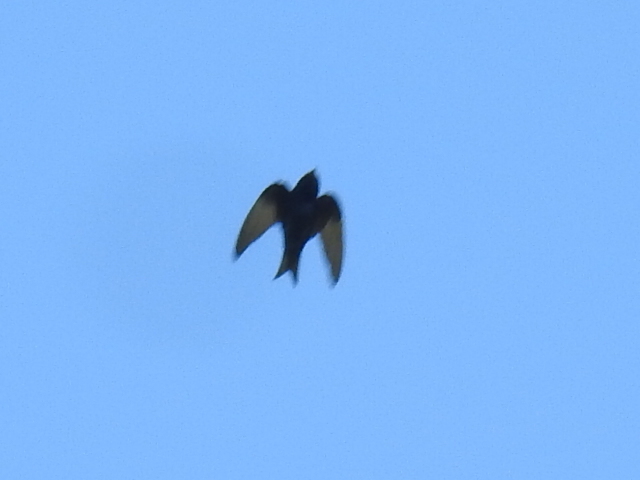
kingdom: Animalia
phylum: Chordata
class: Aves
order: Passeriformes
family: Hirundinidae
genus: Progne
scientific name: Progne subis
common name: Purple martin
